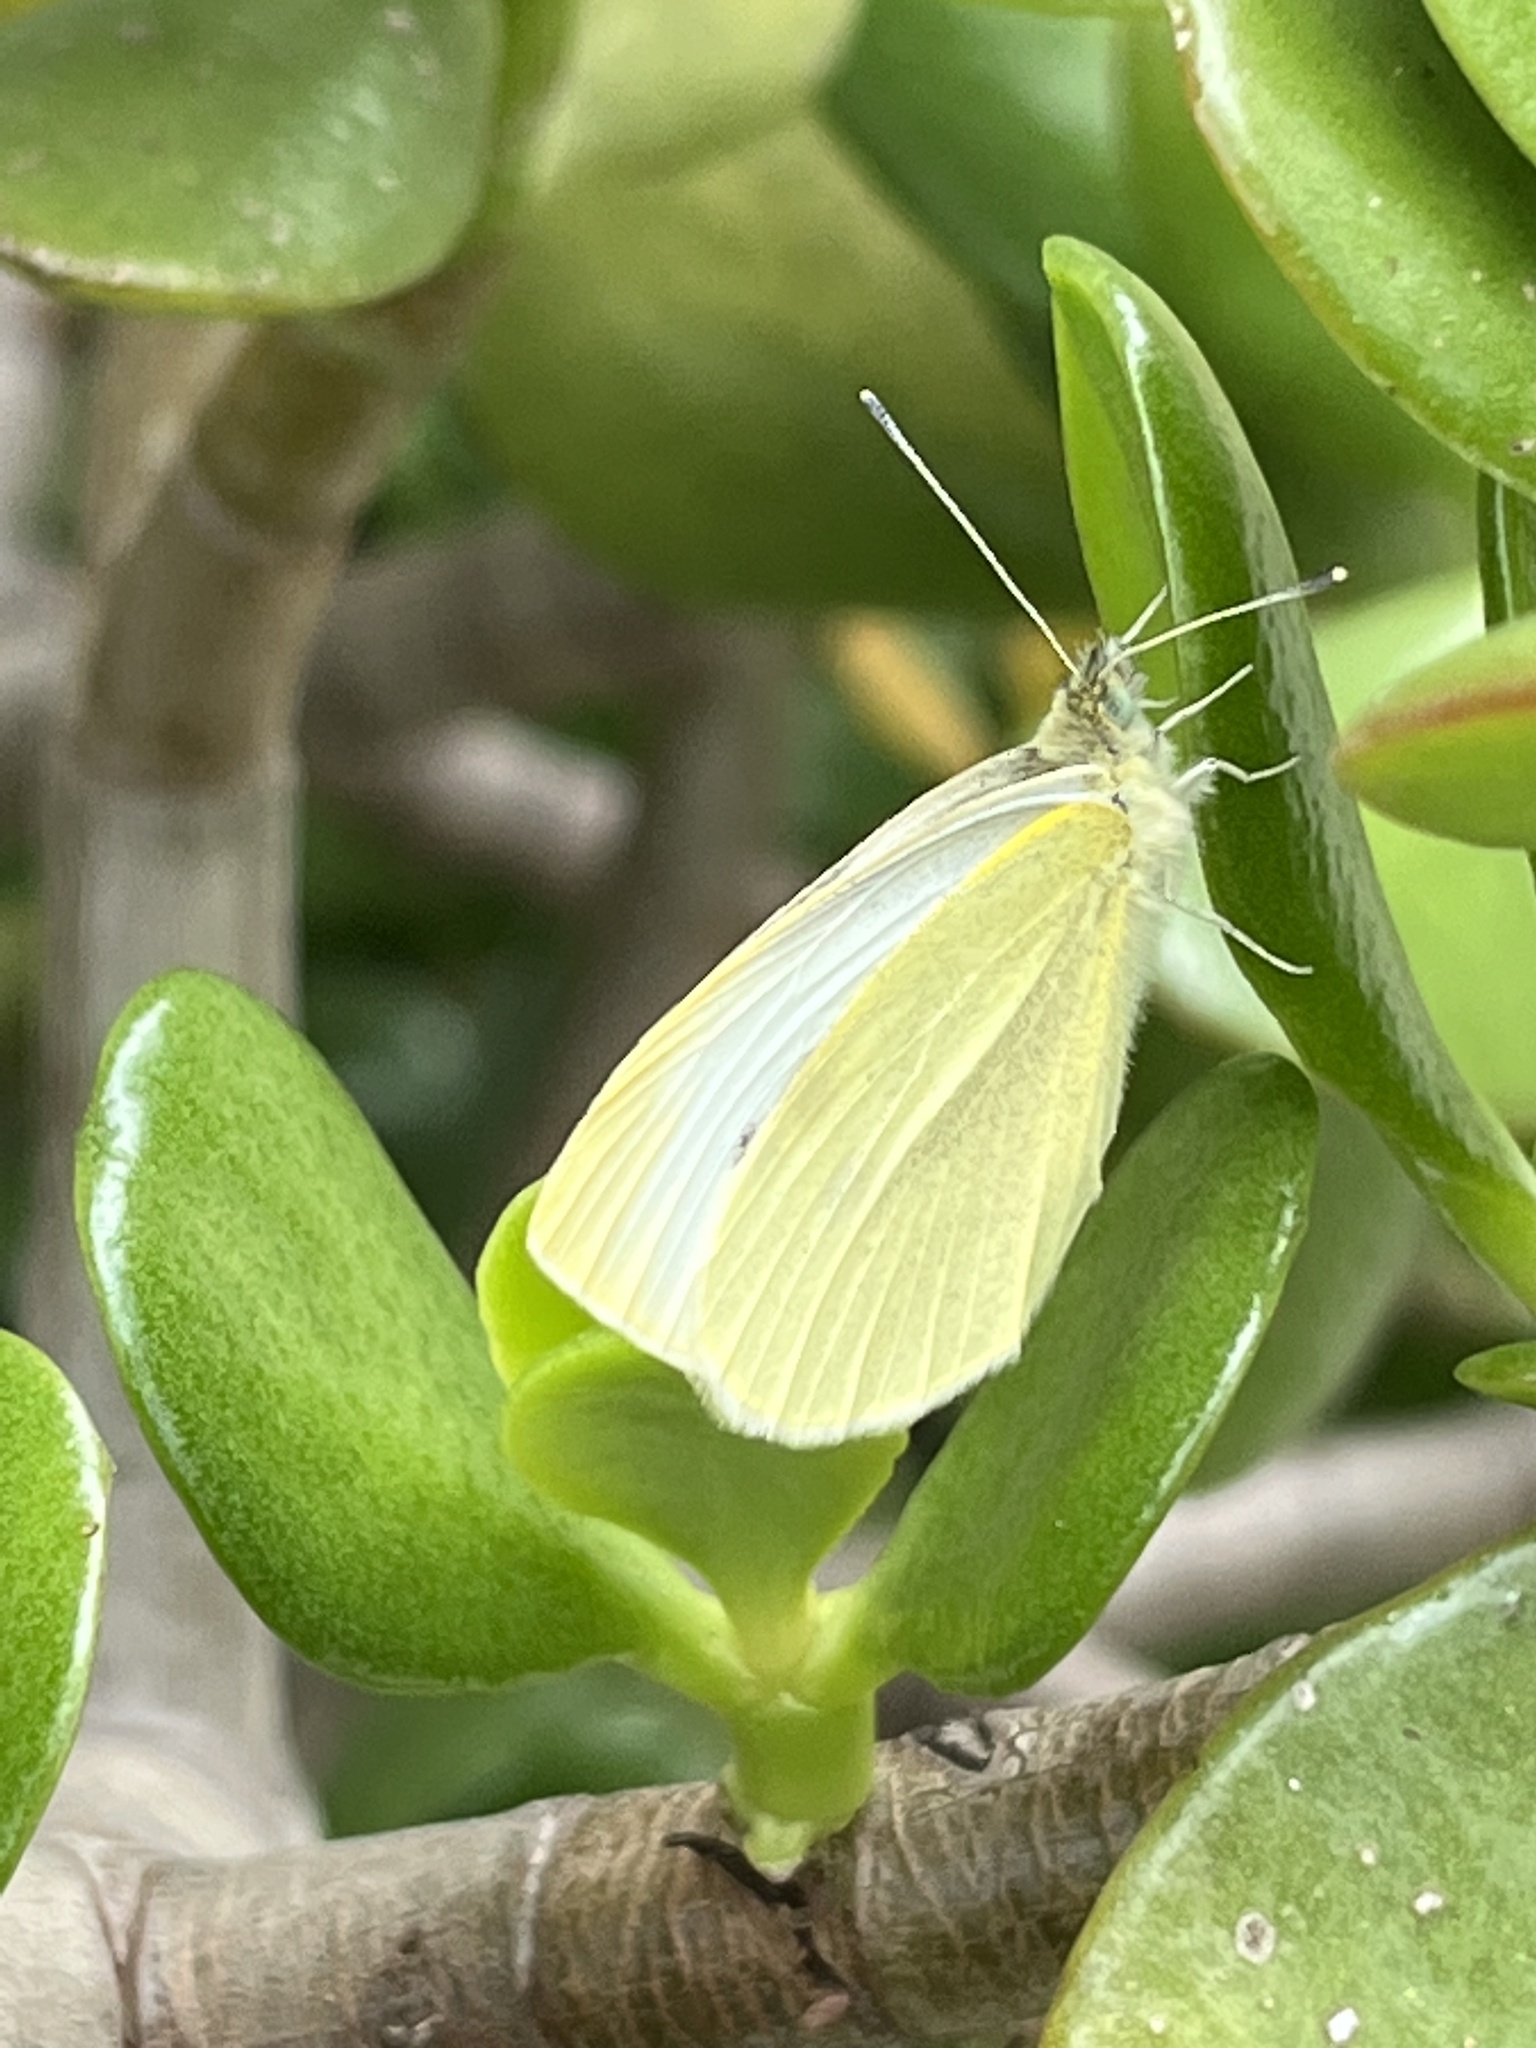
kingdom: Animalia
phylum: Arthropoda
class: Insecta
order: Lepidoptera
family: Pieridae
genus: Pieris
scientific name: Pieris rapae
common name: Small white
